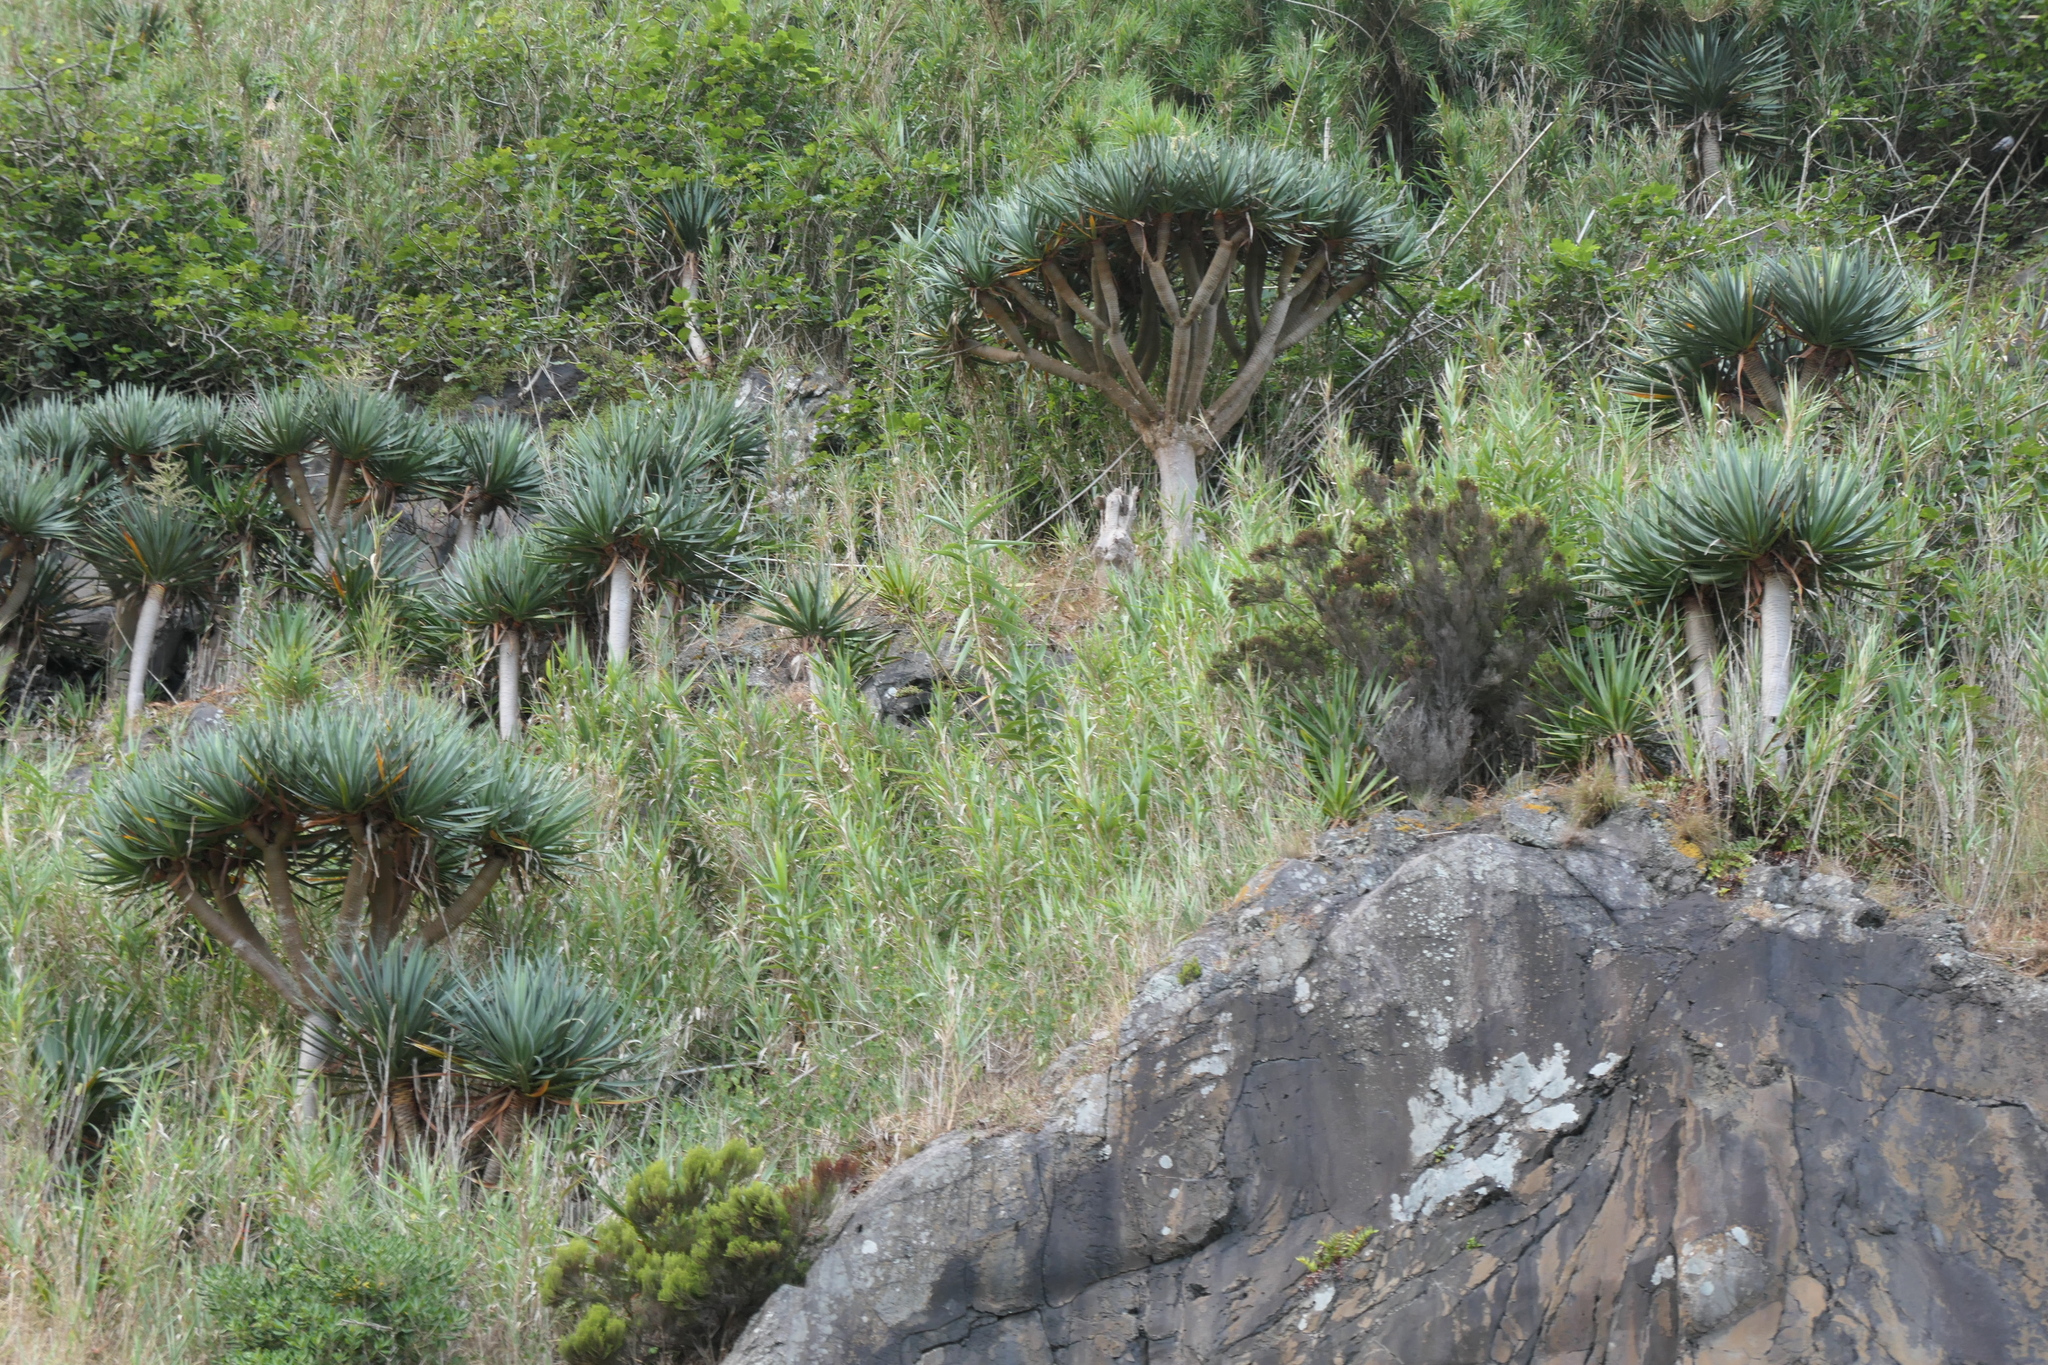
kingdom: Plantae
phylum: Tracheophyta
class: Liliopsida
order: Asparagales
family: Asparagaceae
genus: Dracaena
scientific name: Dracaena draco
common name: Canary island dragon tree
